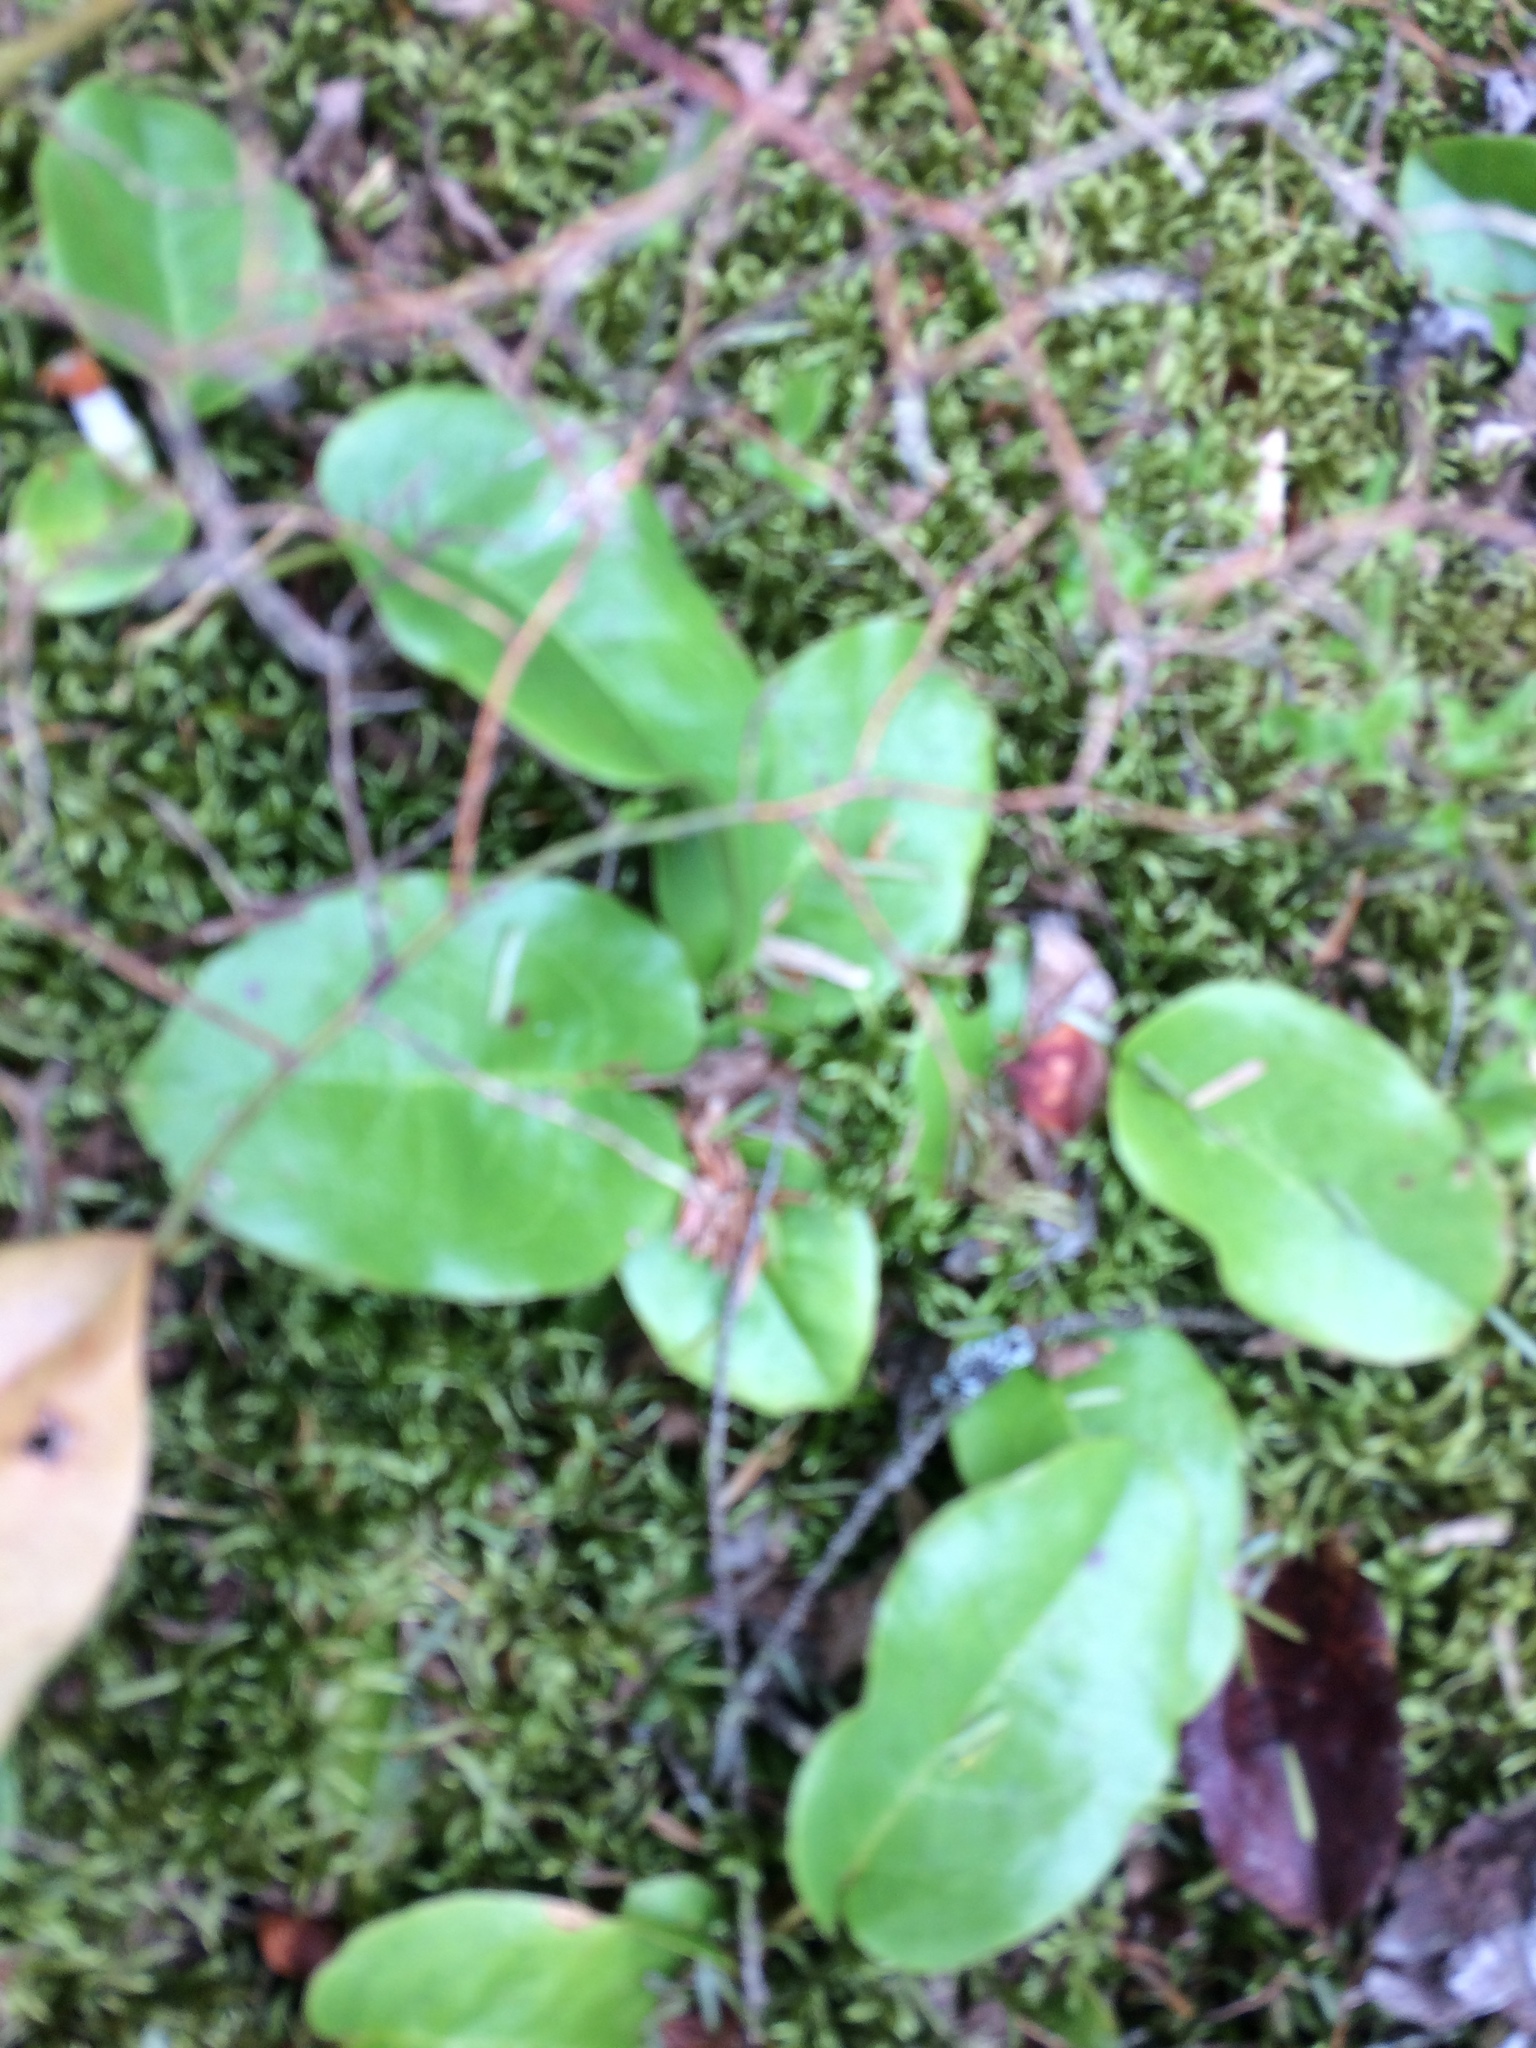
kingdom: Plantae
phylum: Tracheophyta
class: Magnoliopsida
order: Ericales
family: Ericaceae
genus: Epigaea
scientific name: Epigaea repens
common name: Gravelroot
